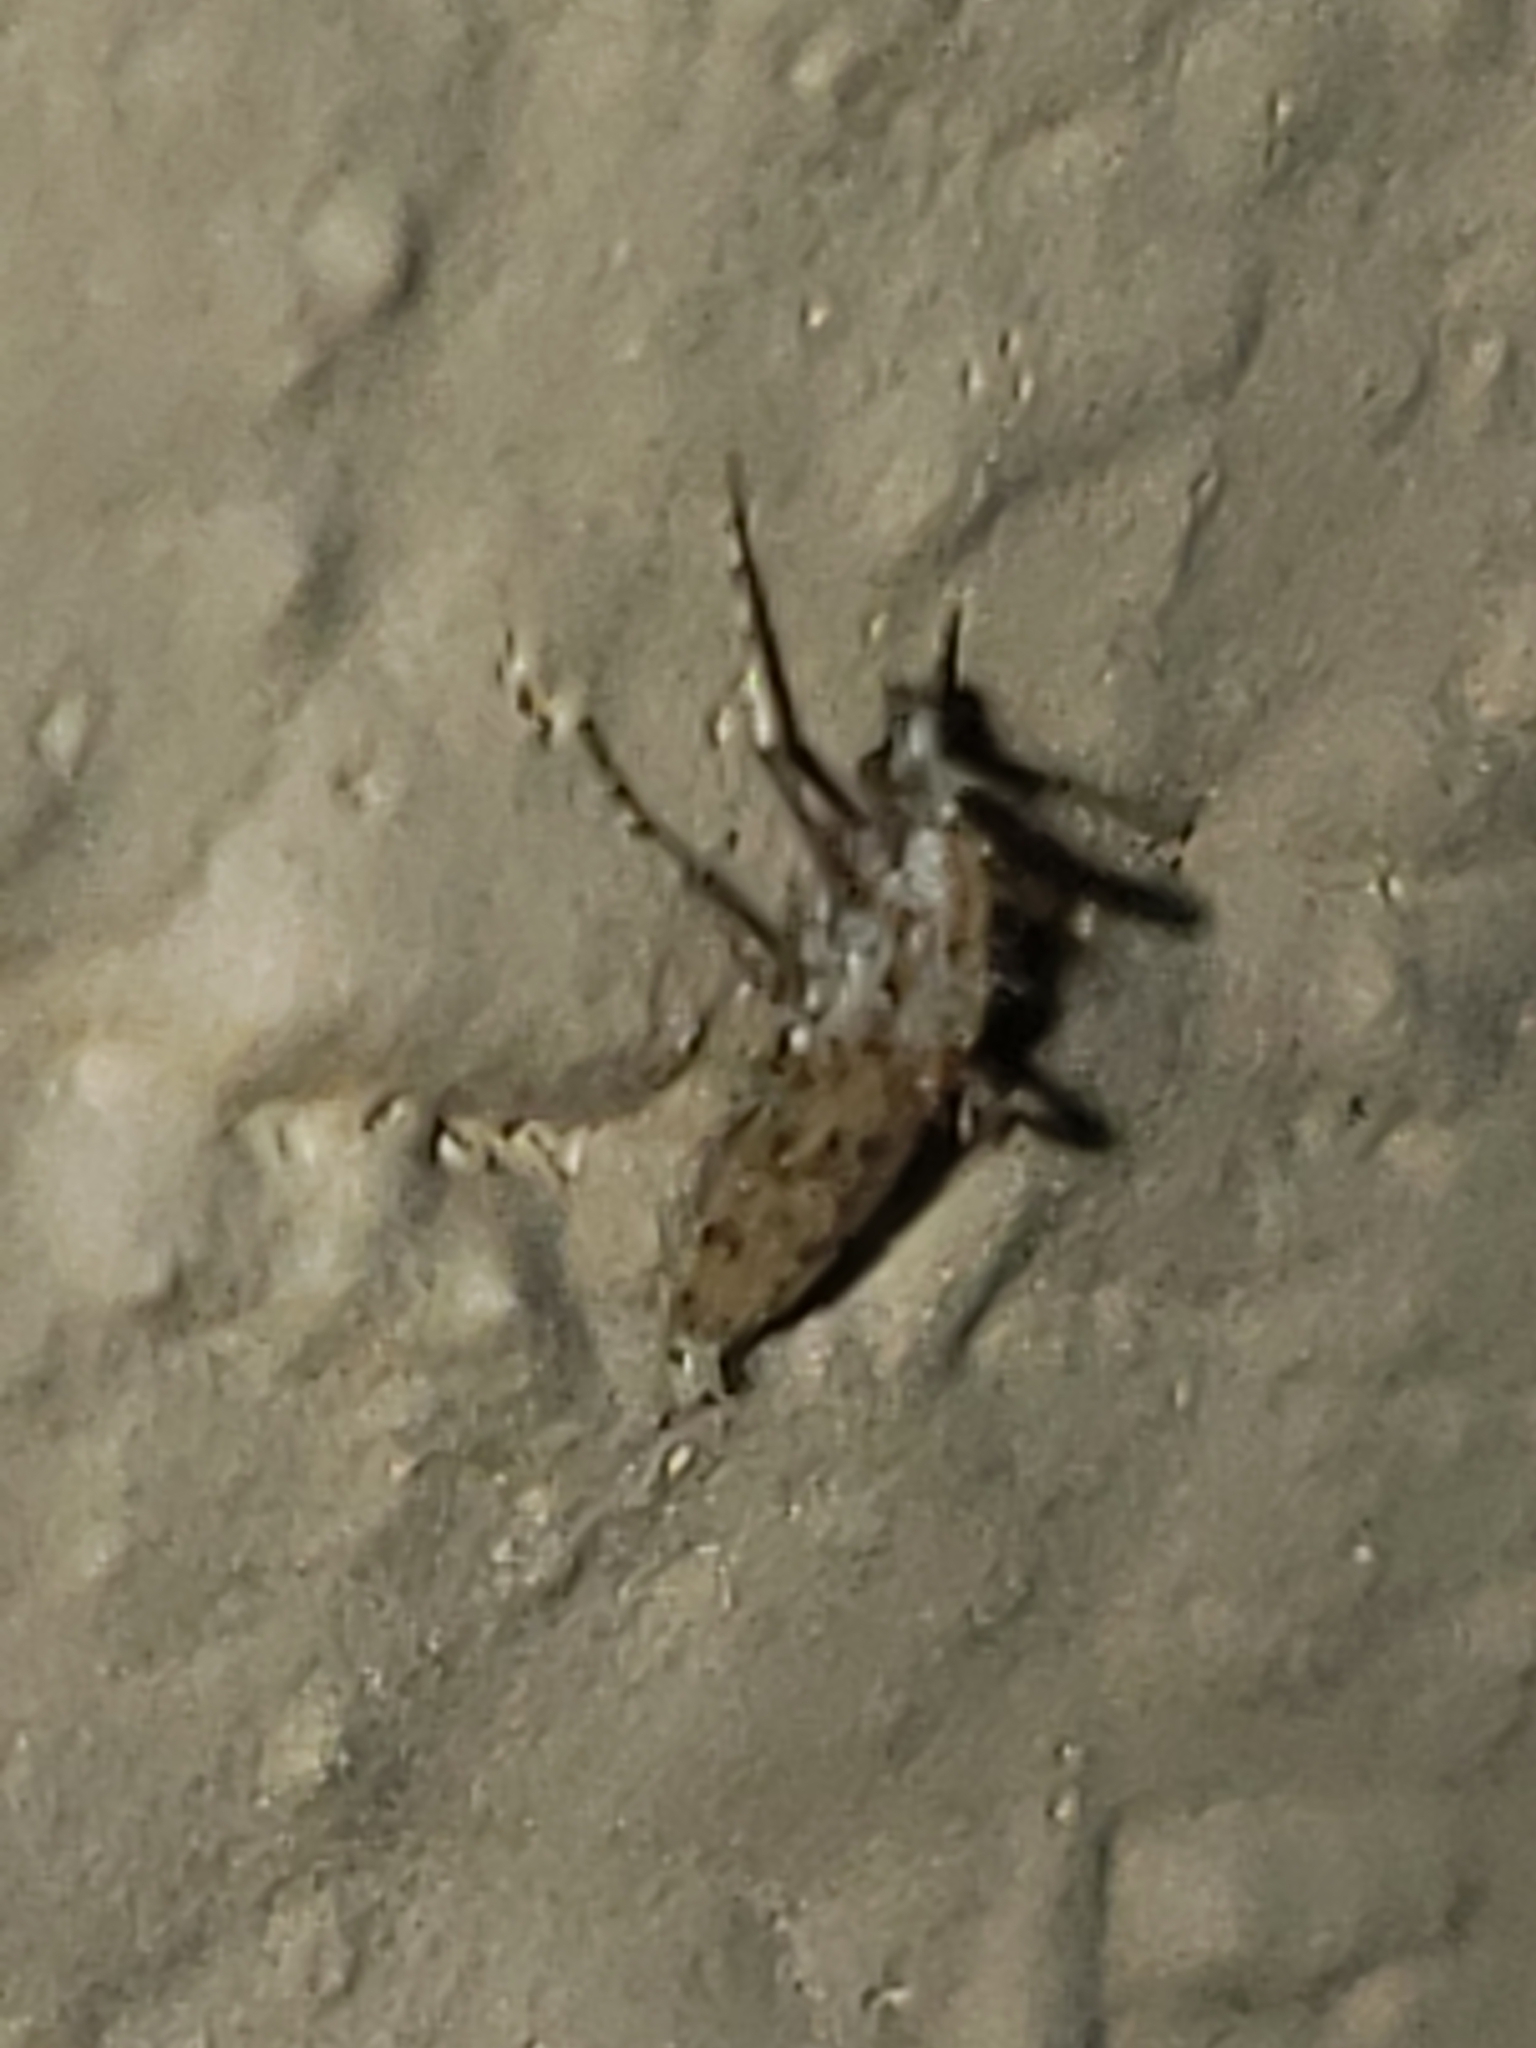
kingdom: Animalia
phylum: Arthropoda
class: Insecta
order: Diptera
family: Chaoboridae
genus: Chaoborus
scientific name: Chaoborus punctipennis
